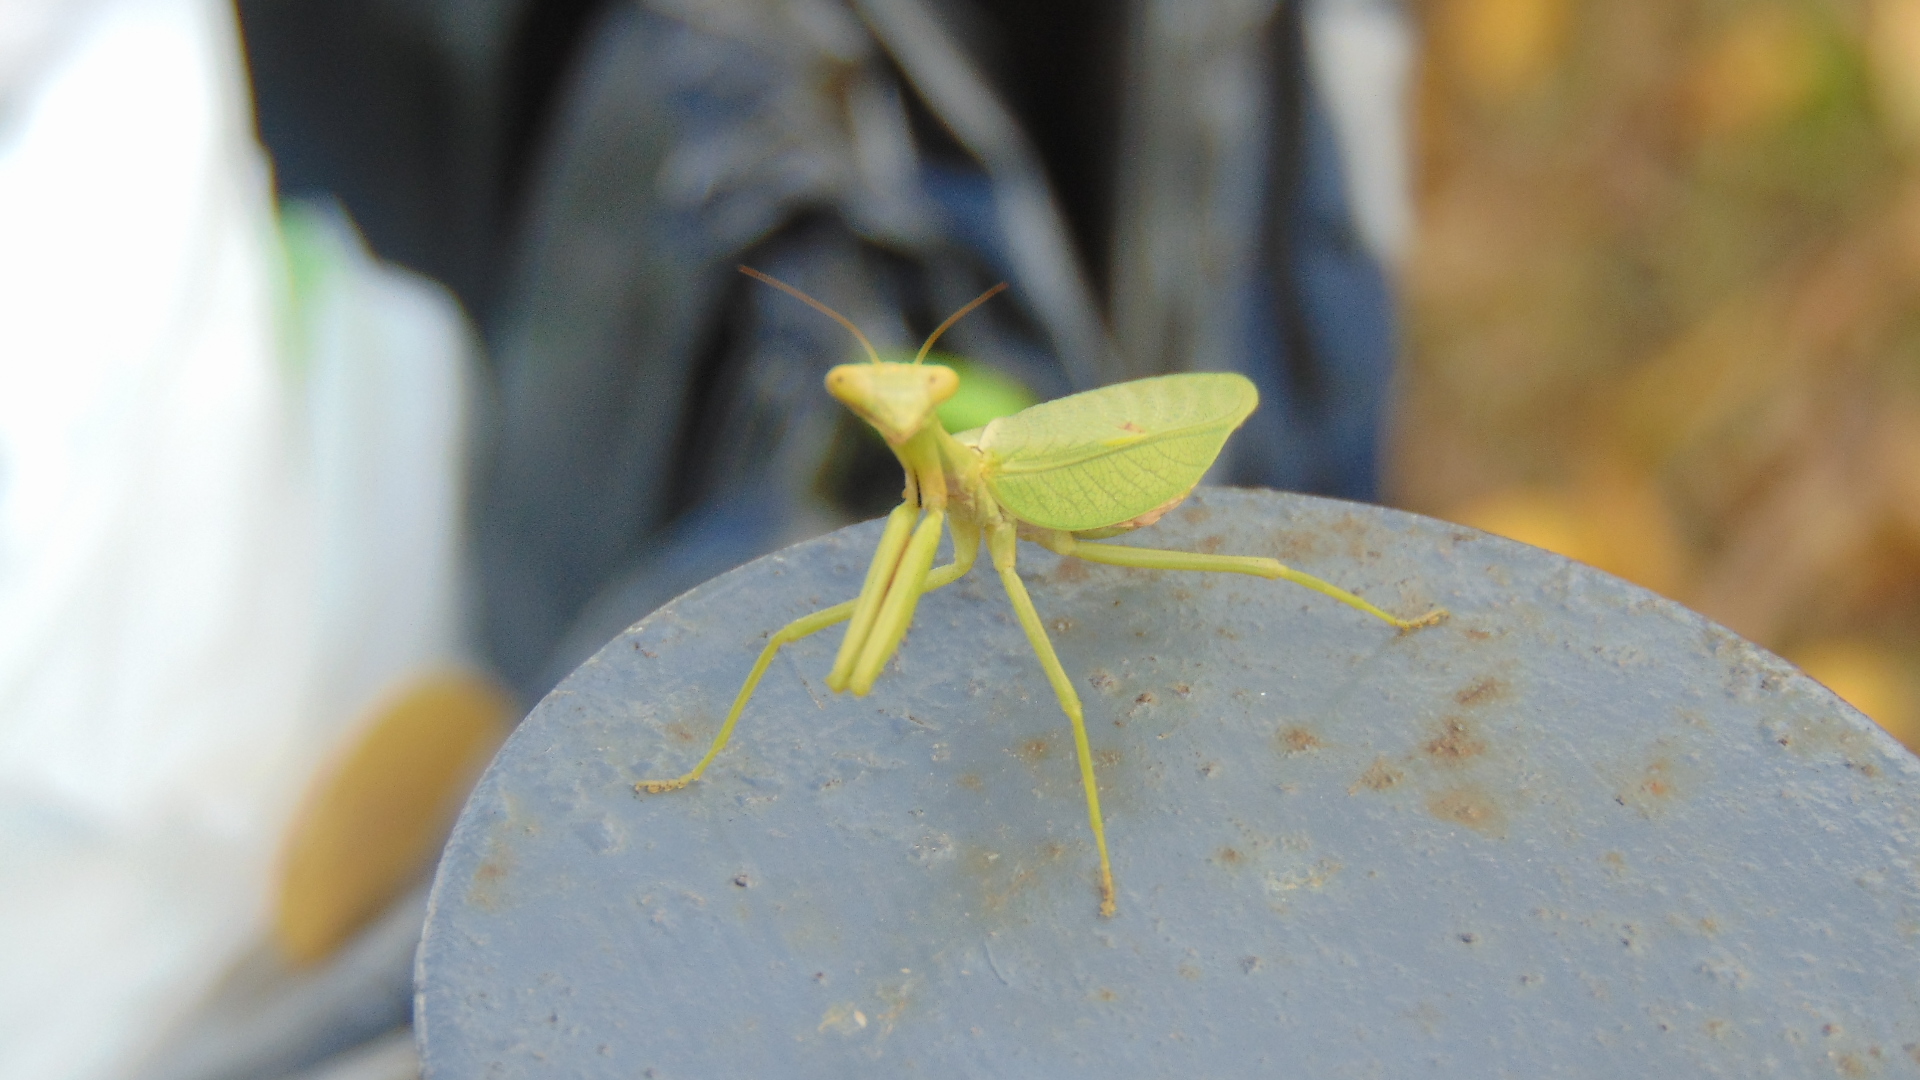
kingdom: Animalia
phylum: Arthropoda
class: Insecta
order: Mantodea
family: Mantidae
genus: Parastagmatoptera
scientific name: Parastagmatoptera theresopolitana
